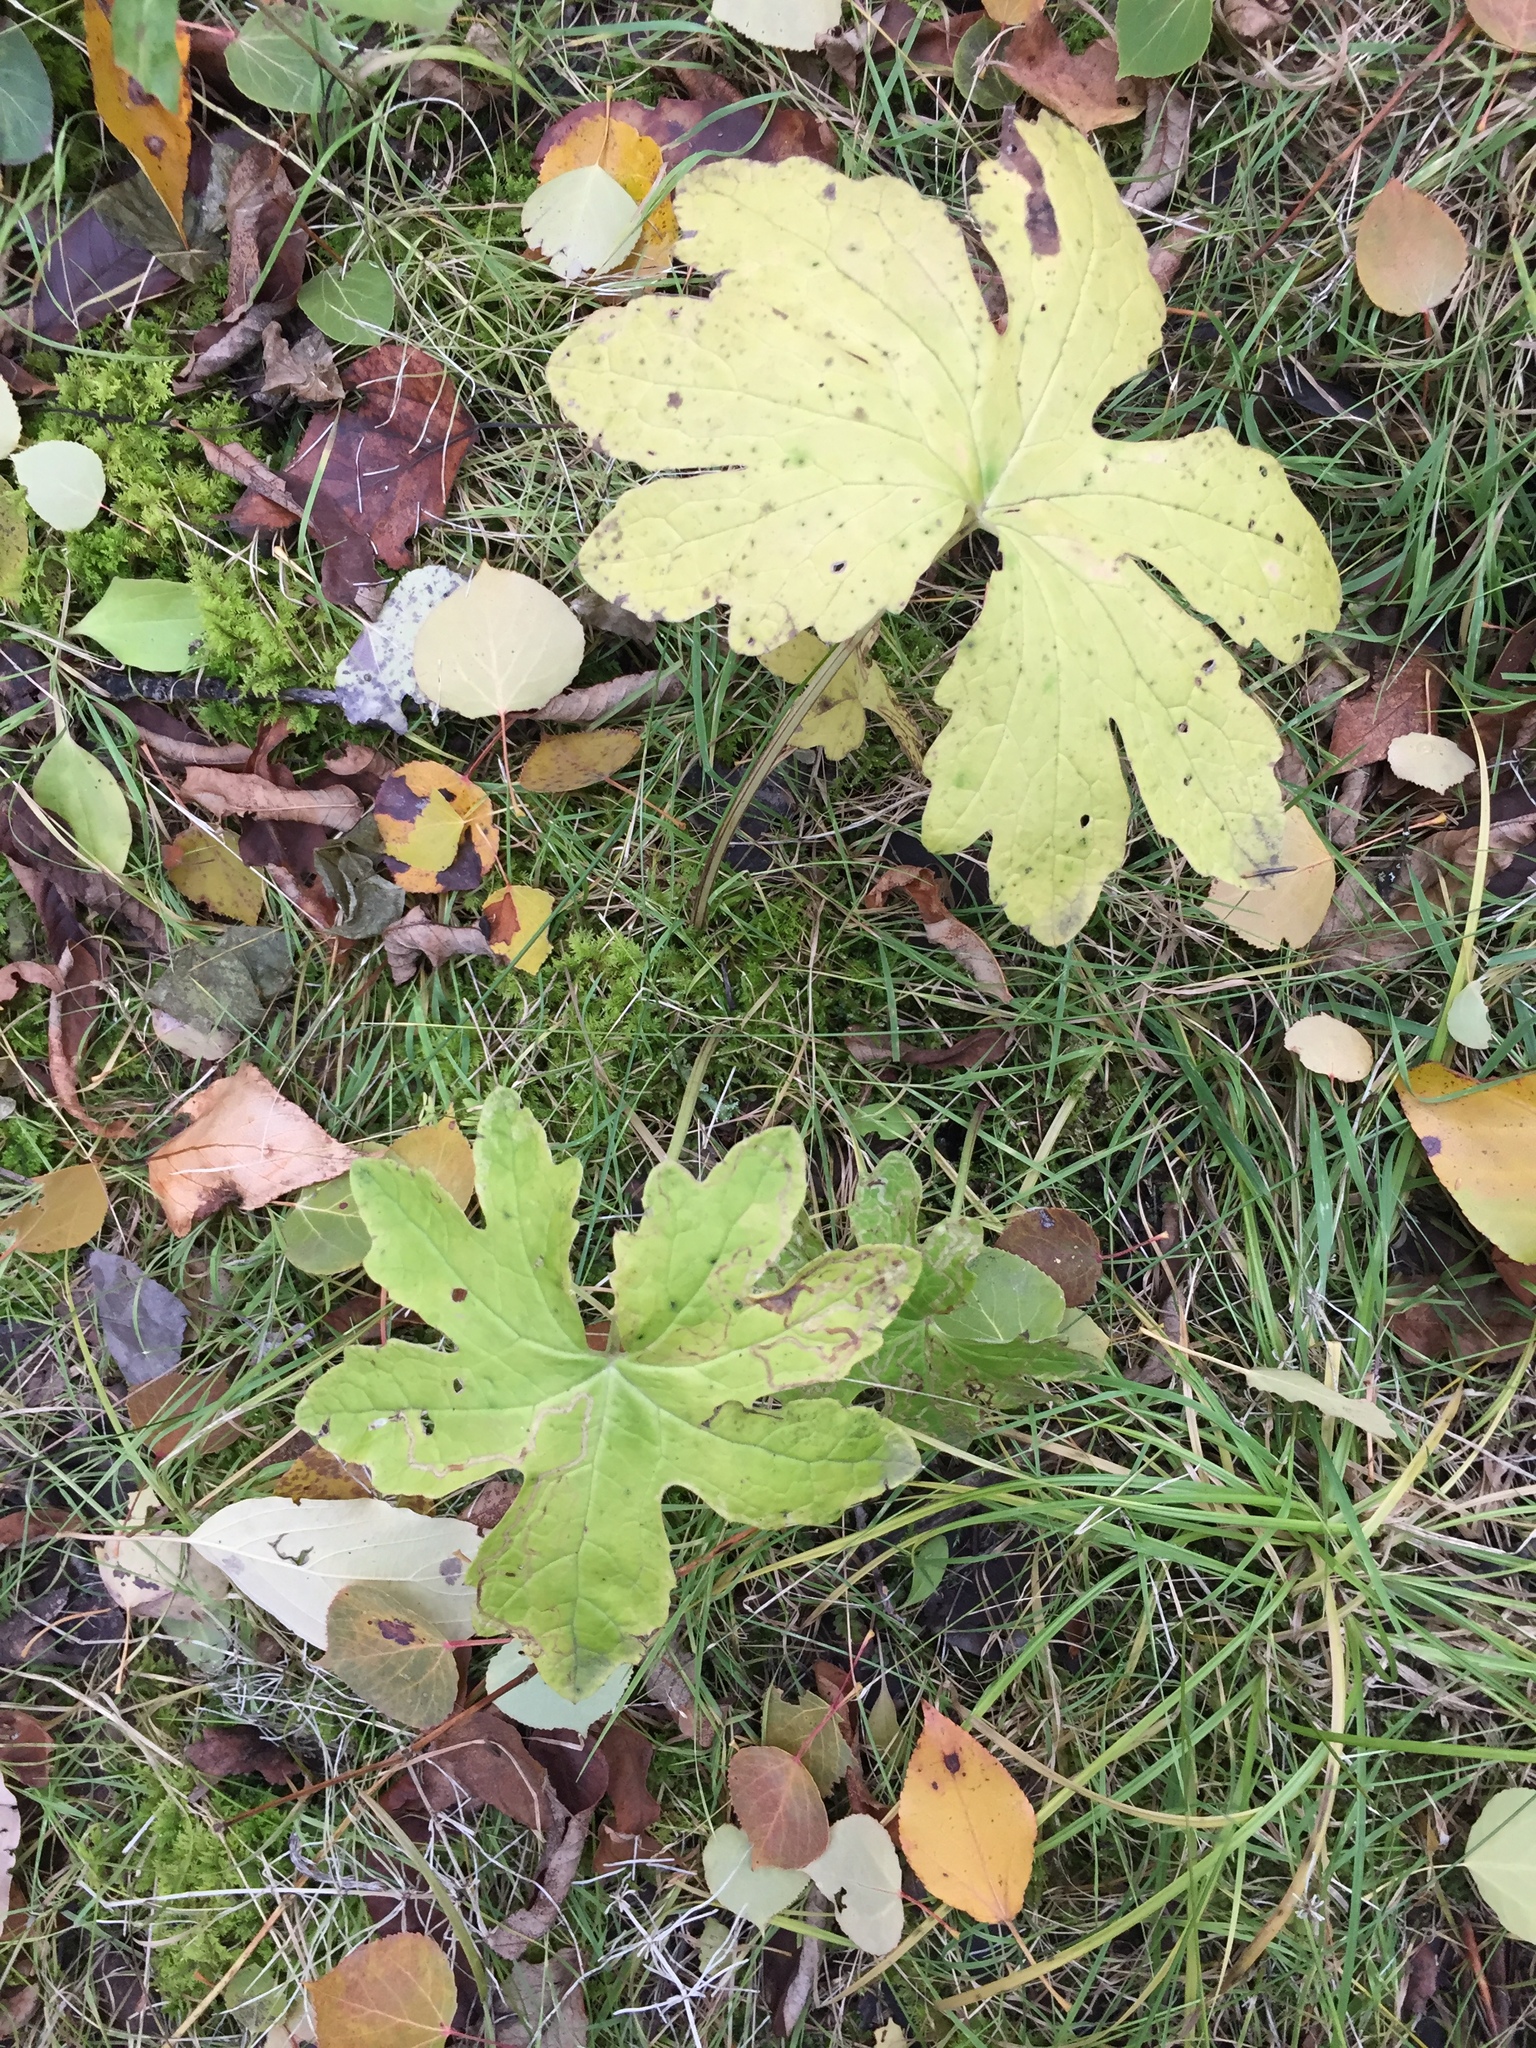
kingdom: Plantae
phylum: Tracheophyta
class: Magnoliopsida
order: Asterales
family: Asteraceae
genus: Petasites
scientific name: Petasites frigidus
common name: Arctic butterbur
